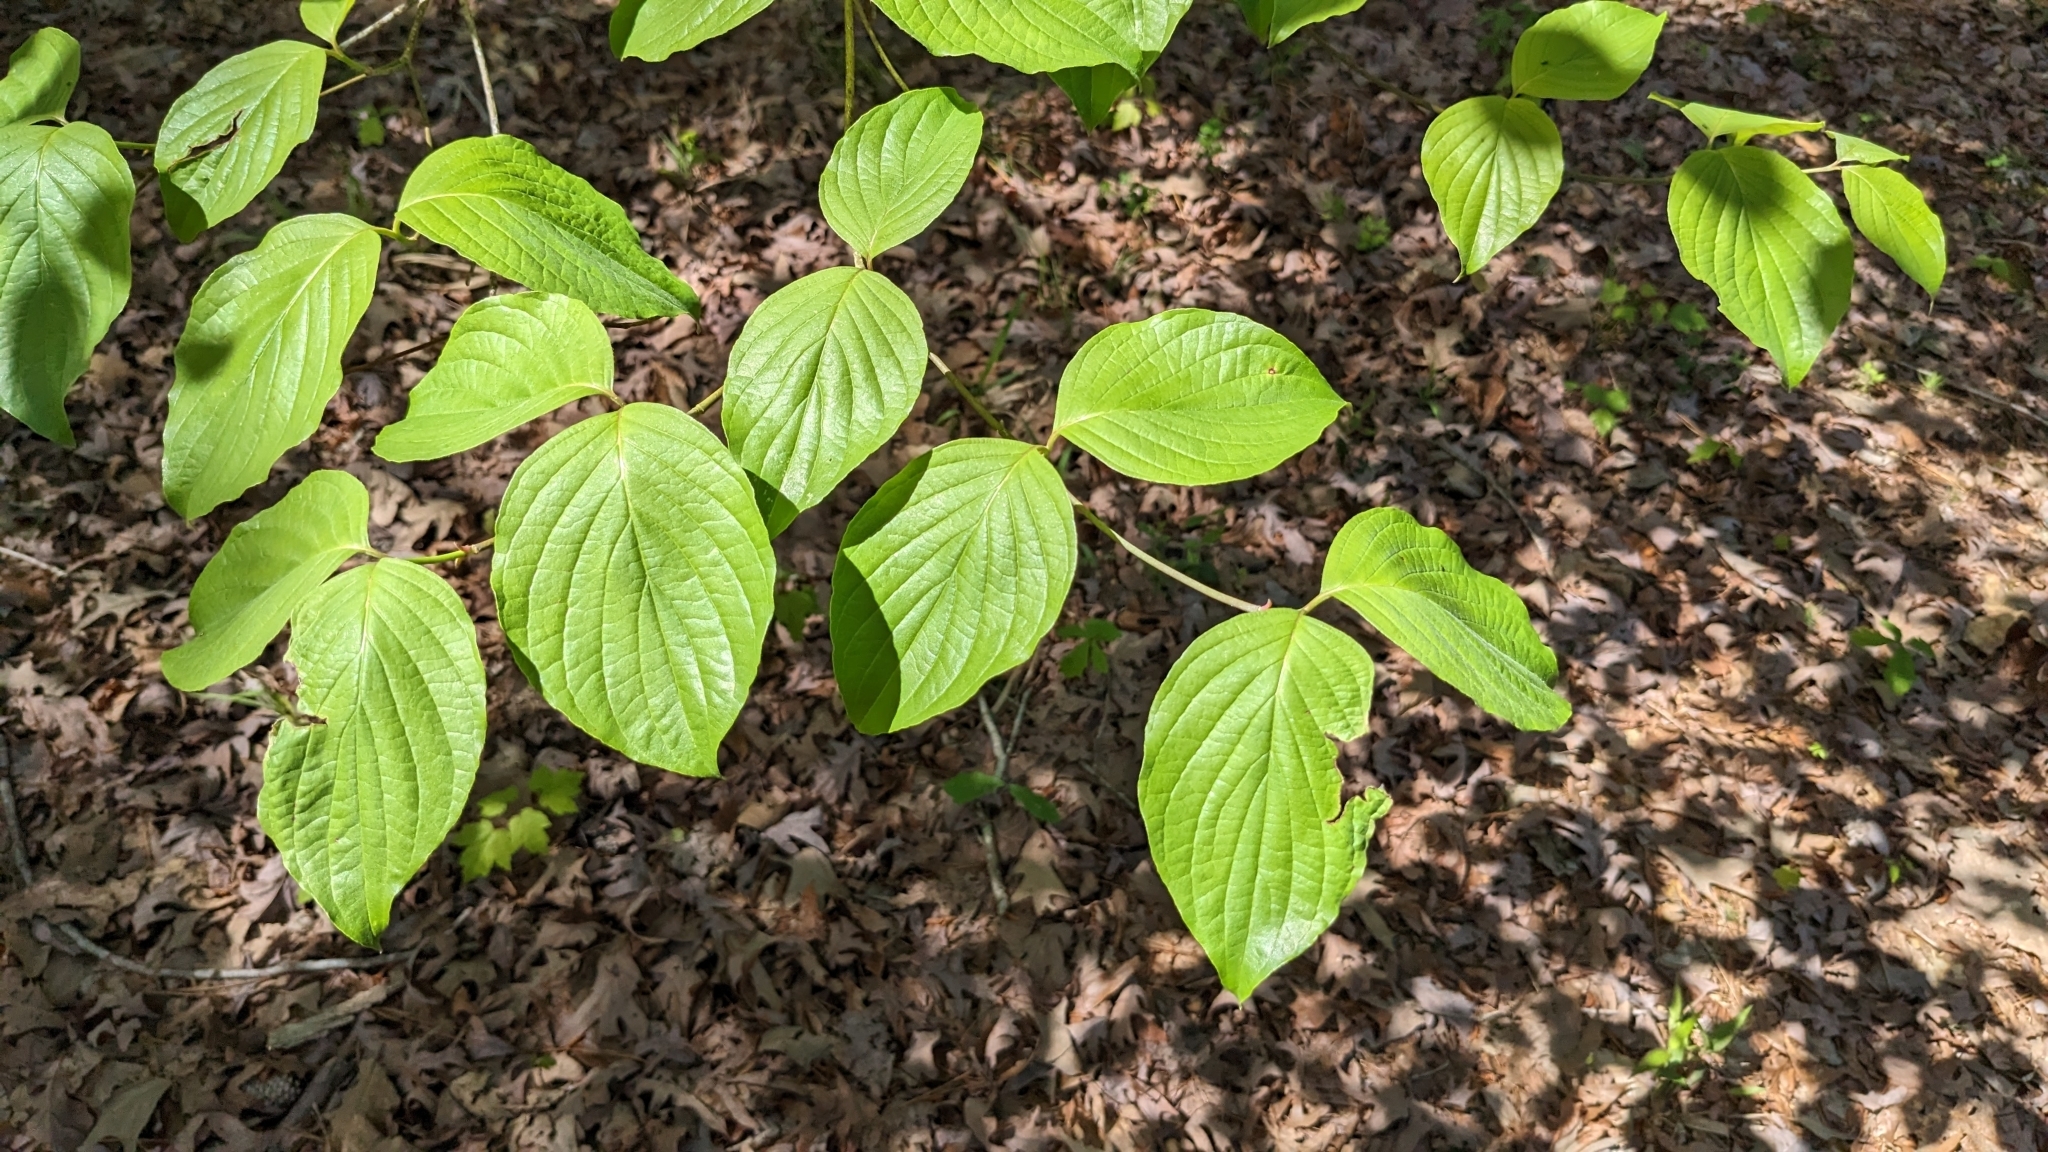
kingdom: Plantae
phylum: Tracheophyta
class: Magnoliopsida
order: Cornales
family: Cornaceae
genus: Cornus
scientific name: Cornus florida
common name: Flowering dogwood
